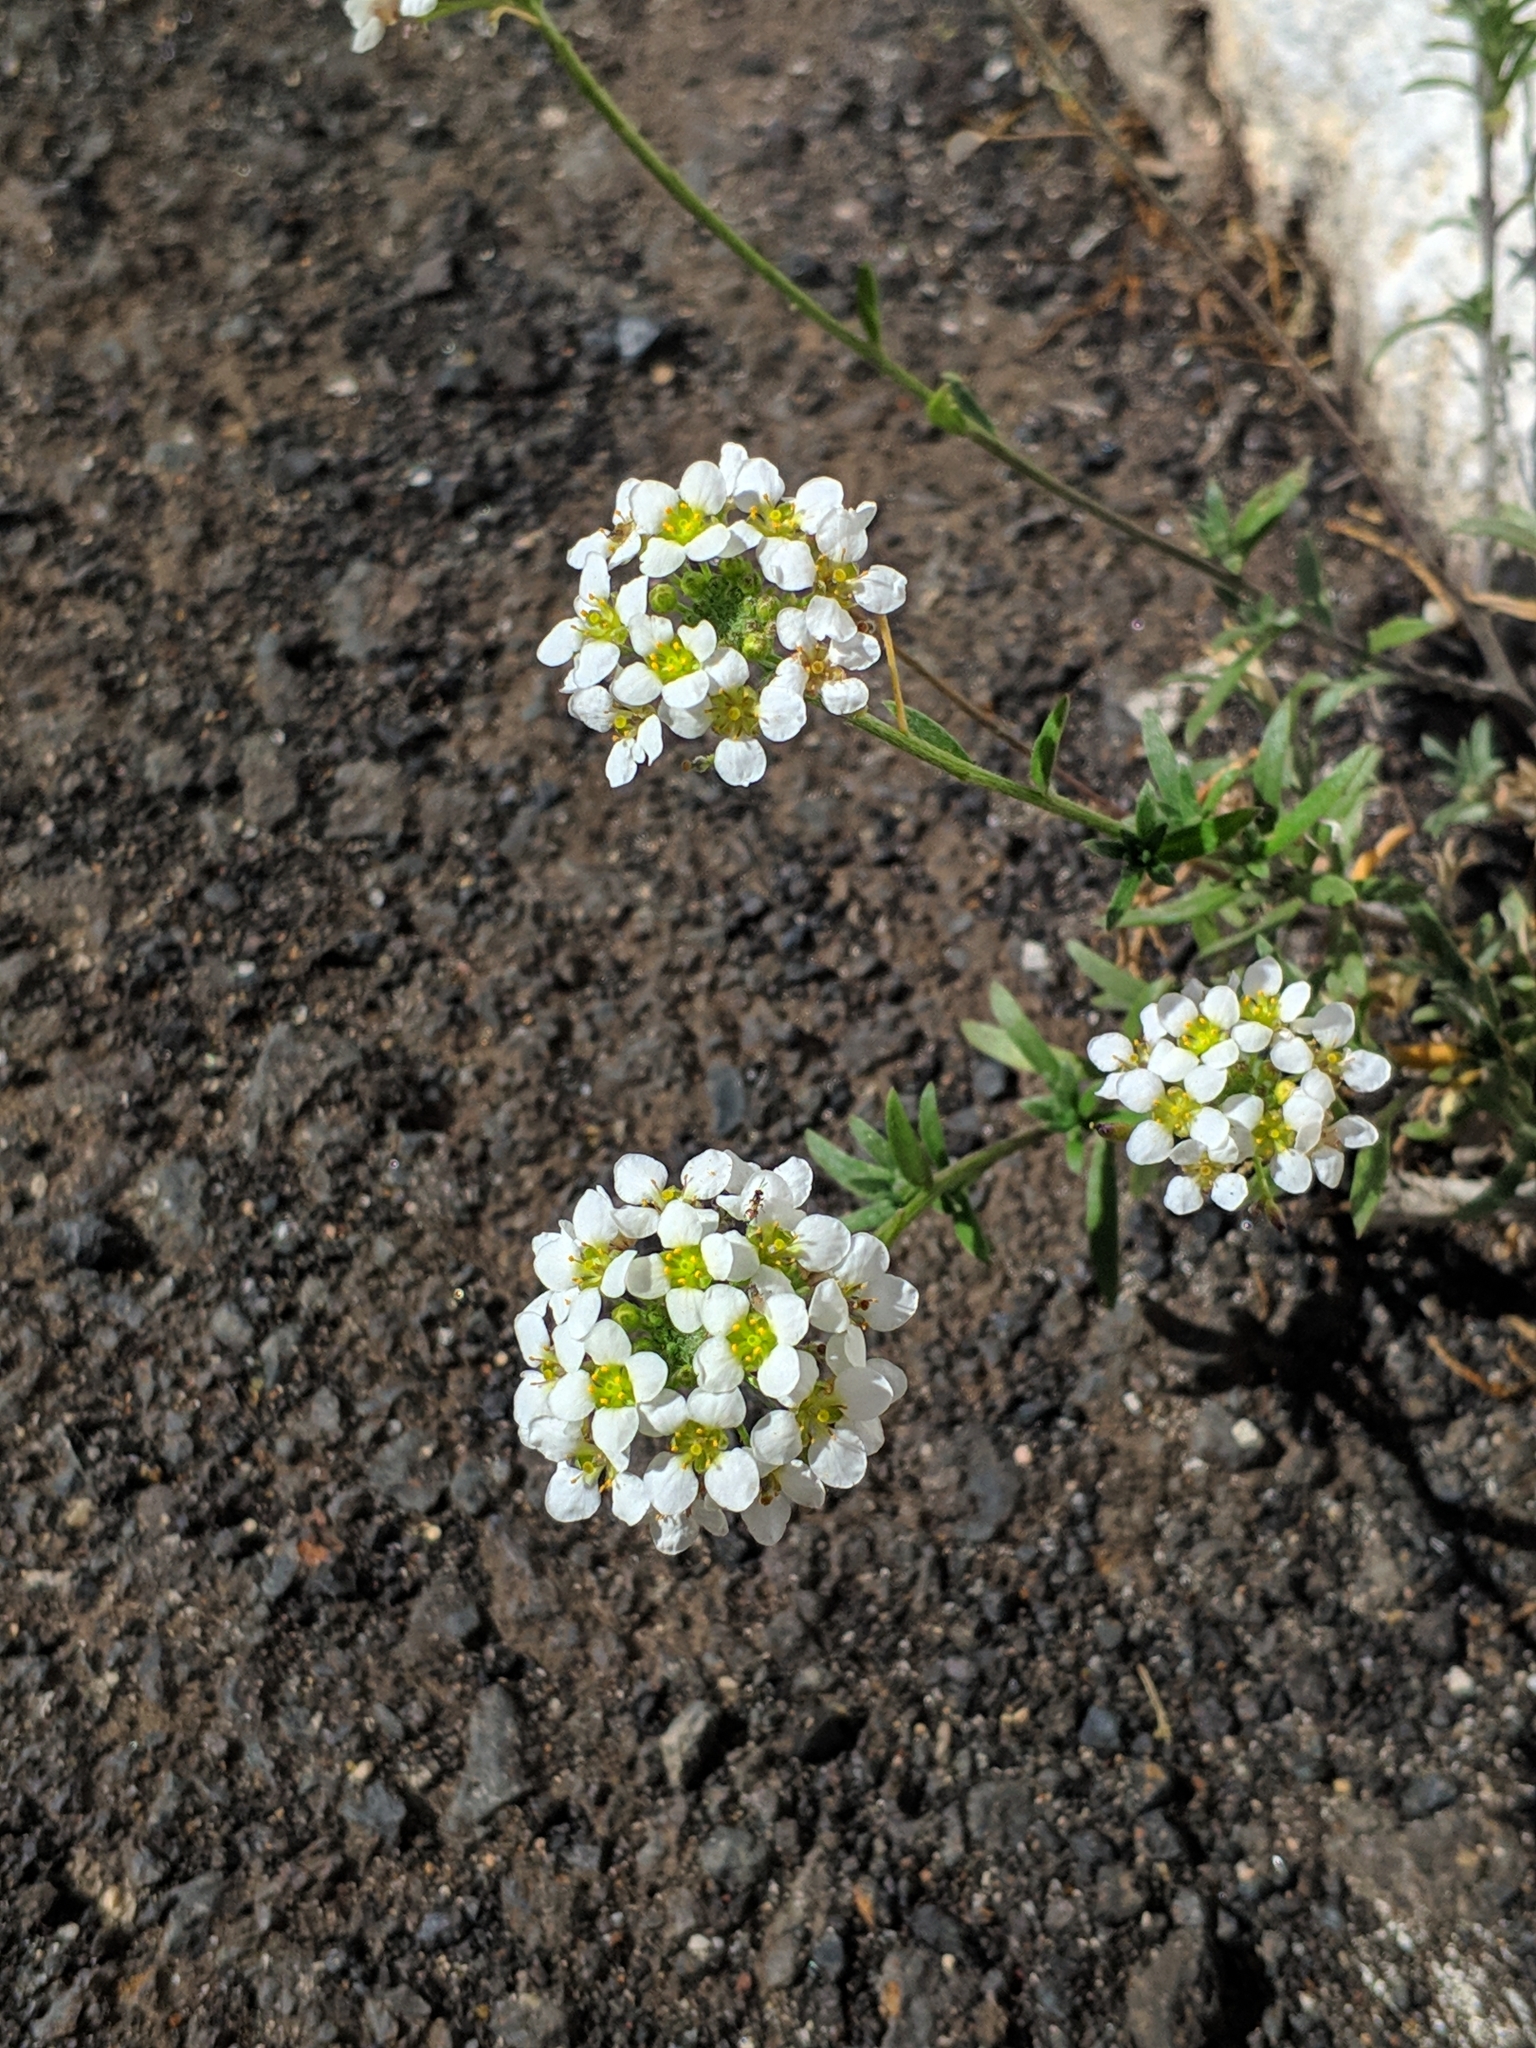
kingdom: Plantae
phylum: Tracheophyta
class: Magnoliopsida
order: Brassicales
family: Brassicaceae
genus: Lobularia
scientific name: Lobularia canariensis
